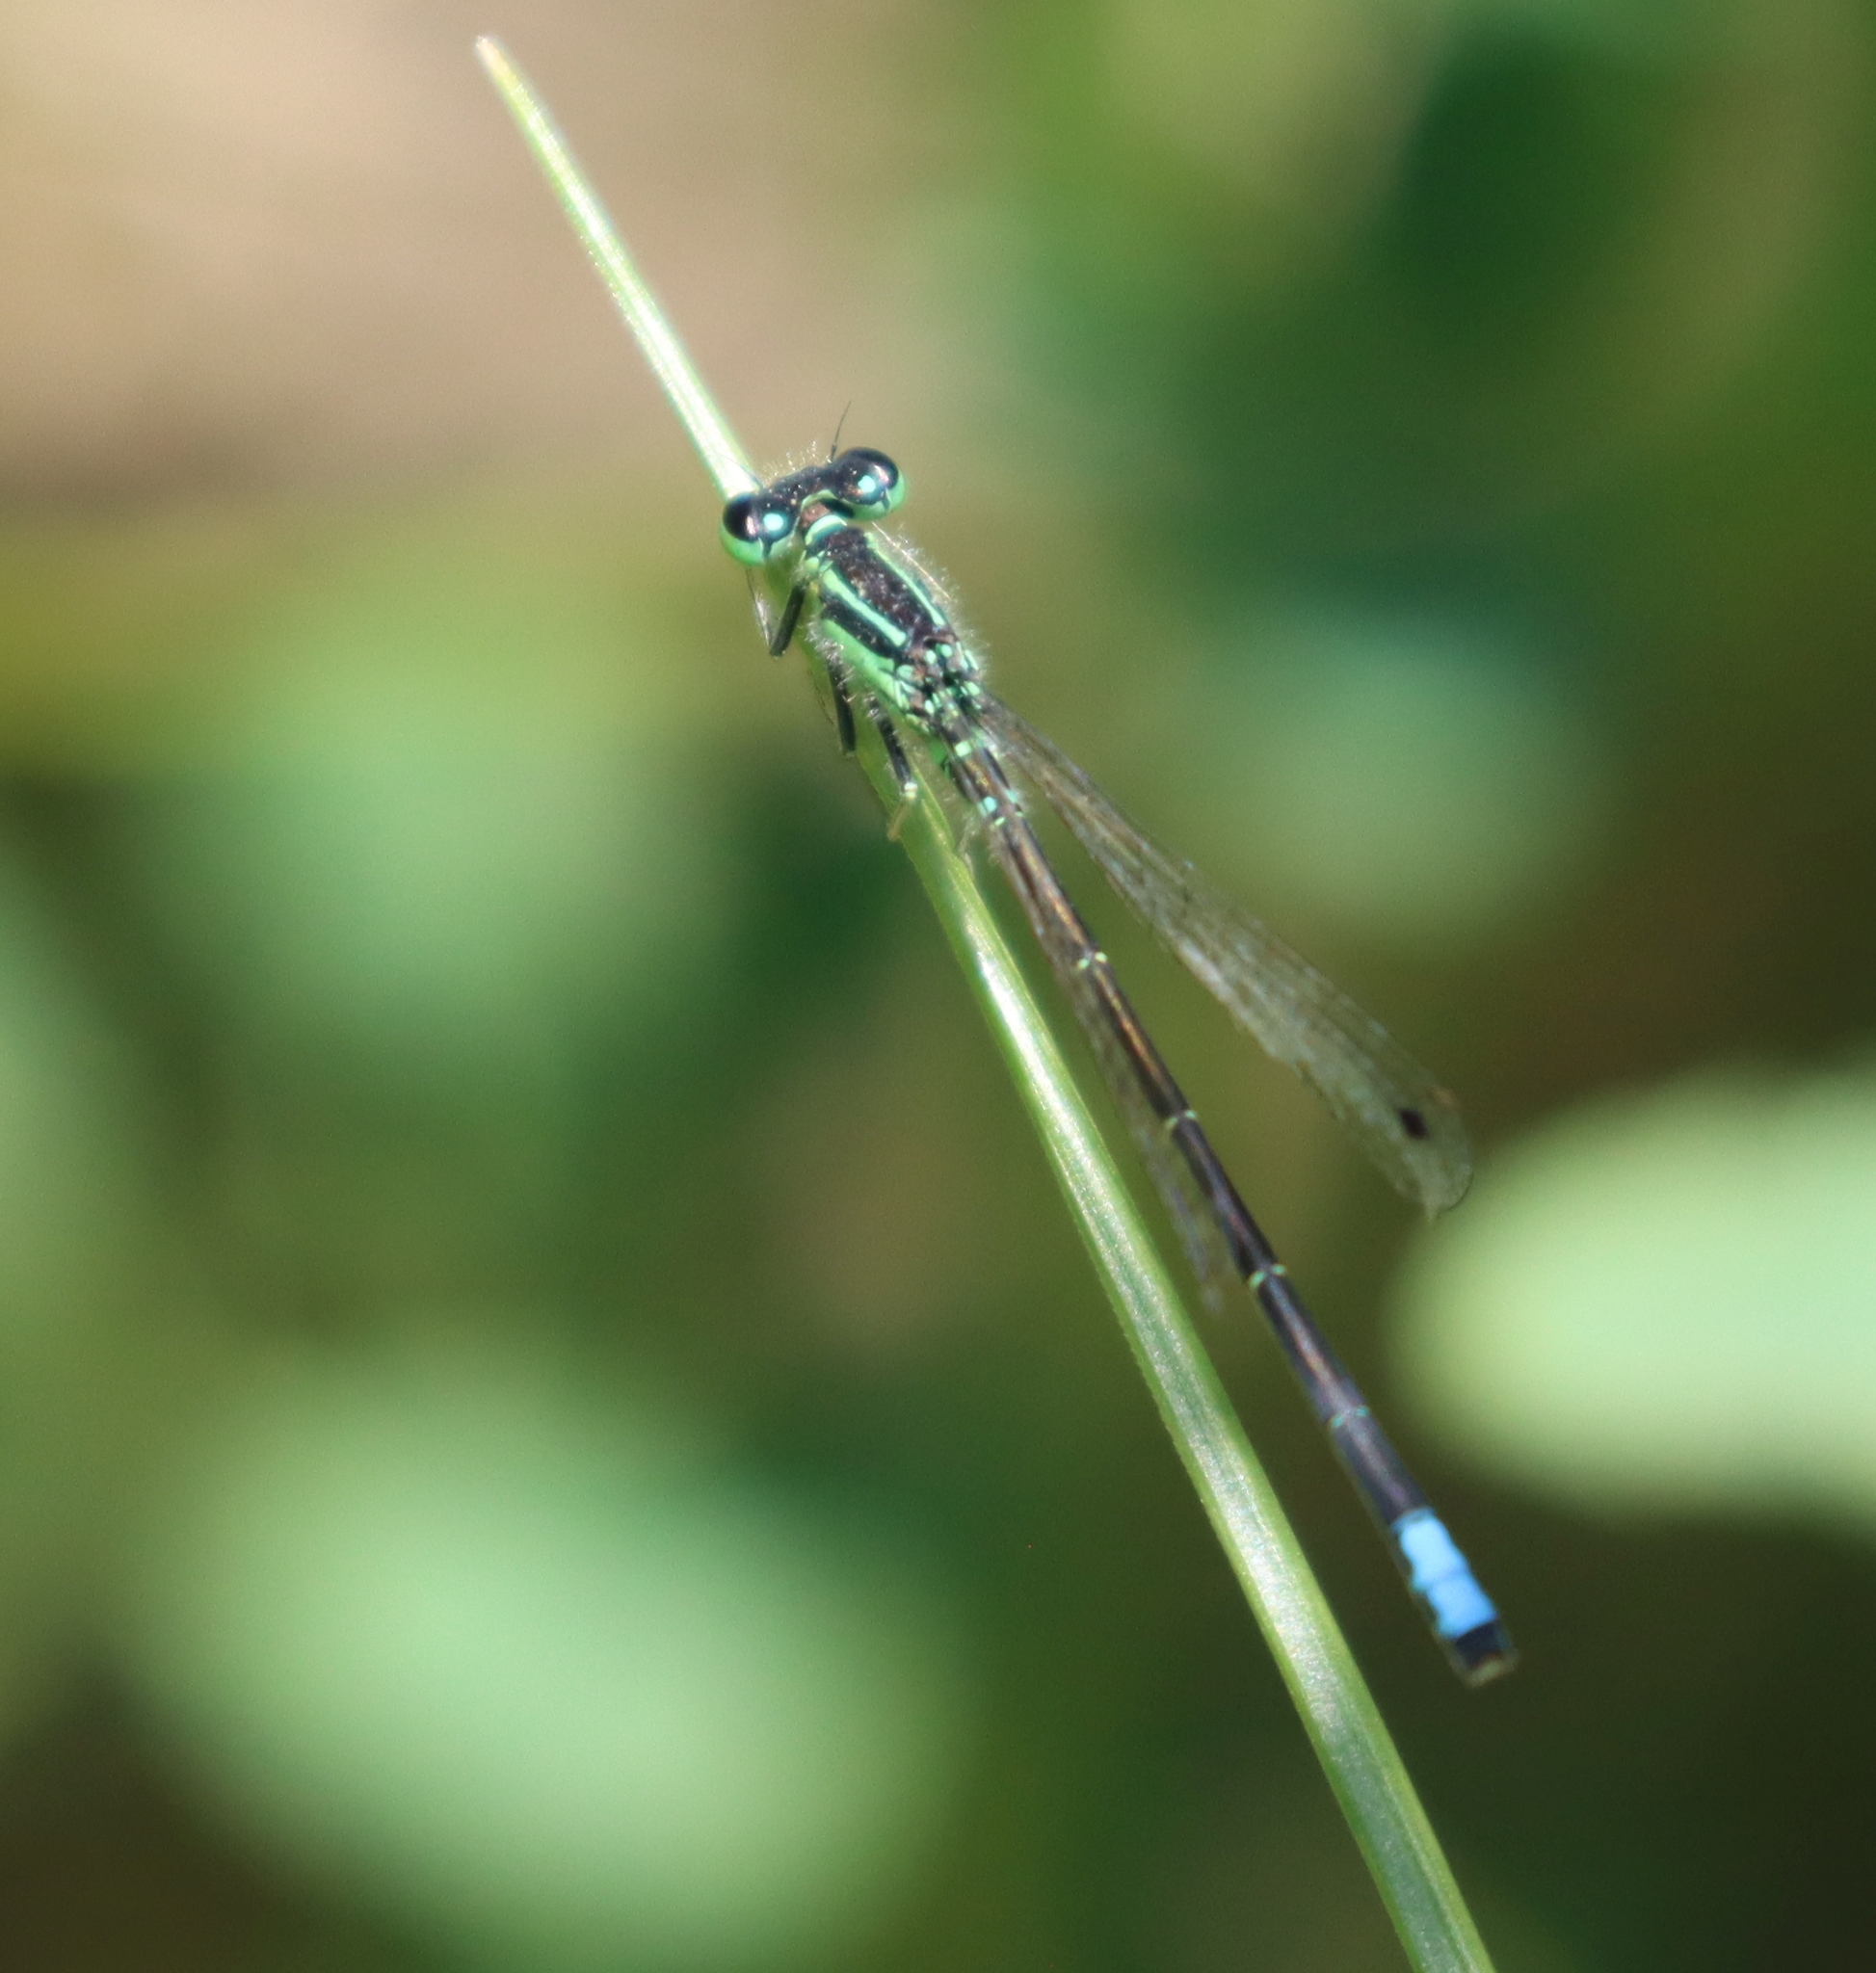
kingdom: Animalia
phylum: Arthropoda
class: Insecta
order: Odonata
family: Coenagrionidae
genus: Ischnura
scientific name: Ischnura verticalis
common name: Eastern forktail
